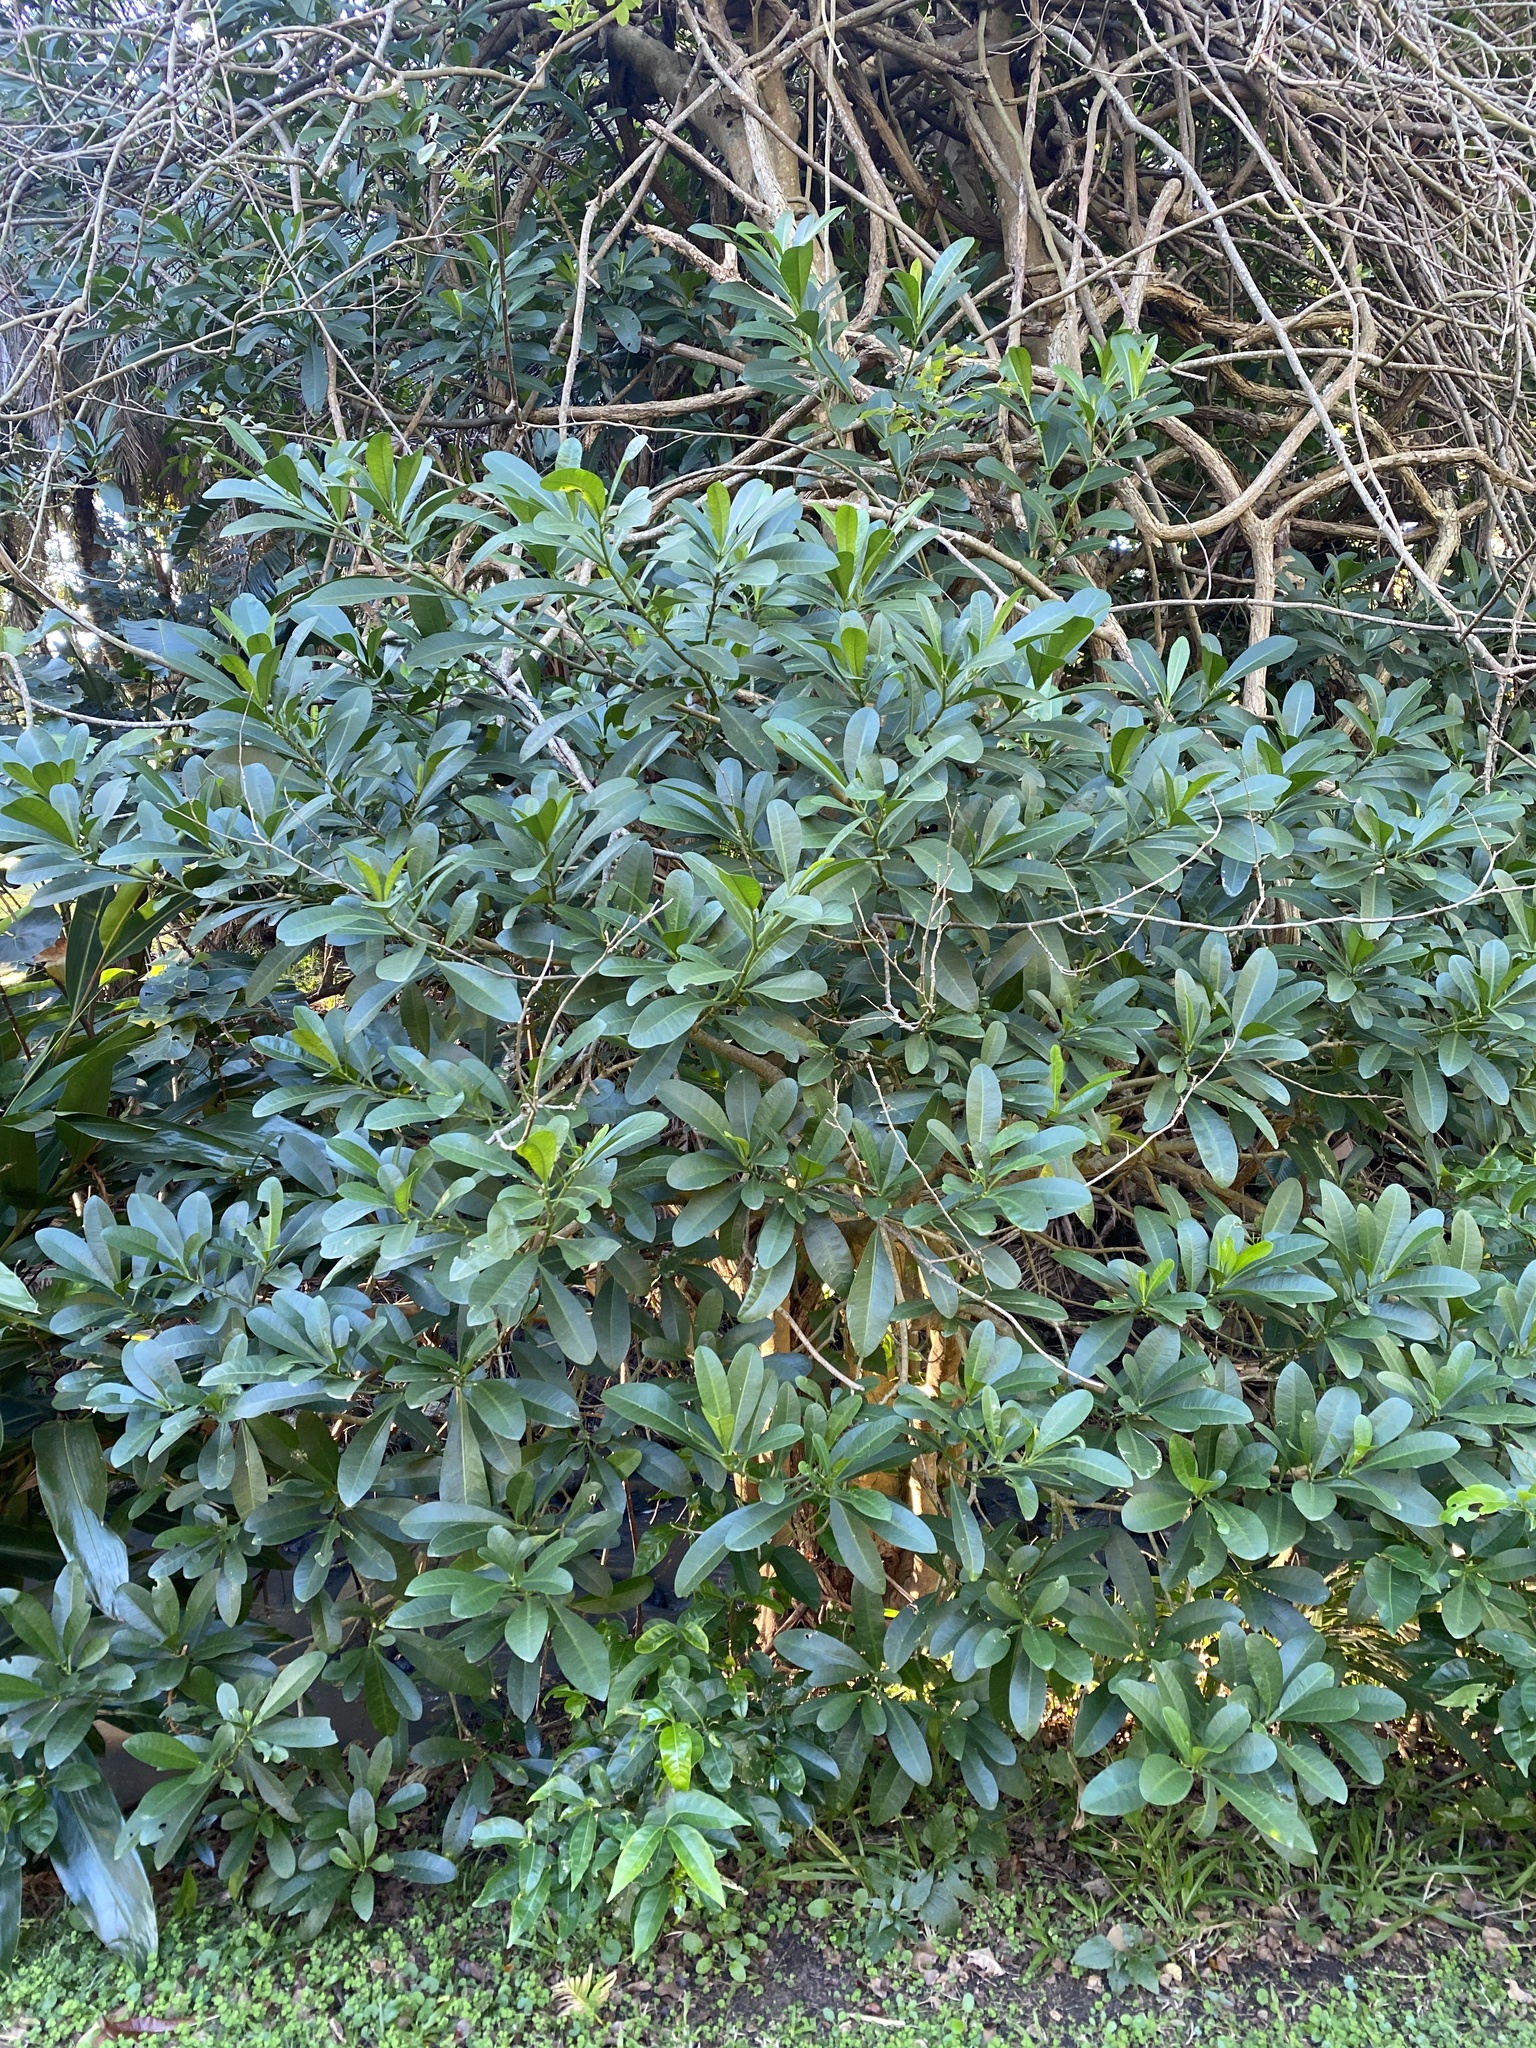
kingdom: Plantae
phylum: Tracheophyta
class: Magnoliopsida
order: Gentianales
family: Apocynaceae
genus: Voacanga
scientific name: Voacanga thouarsii
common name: Wild frangipani
